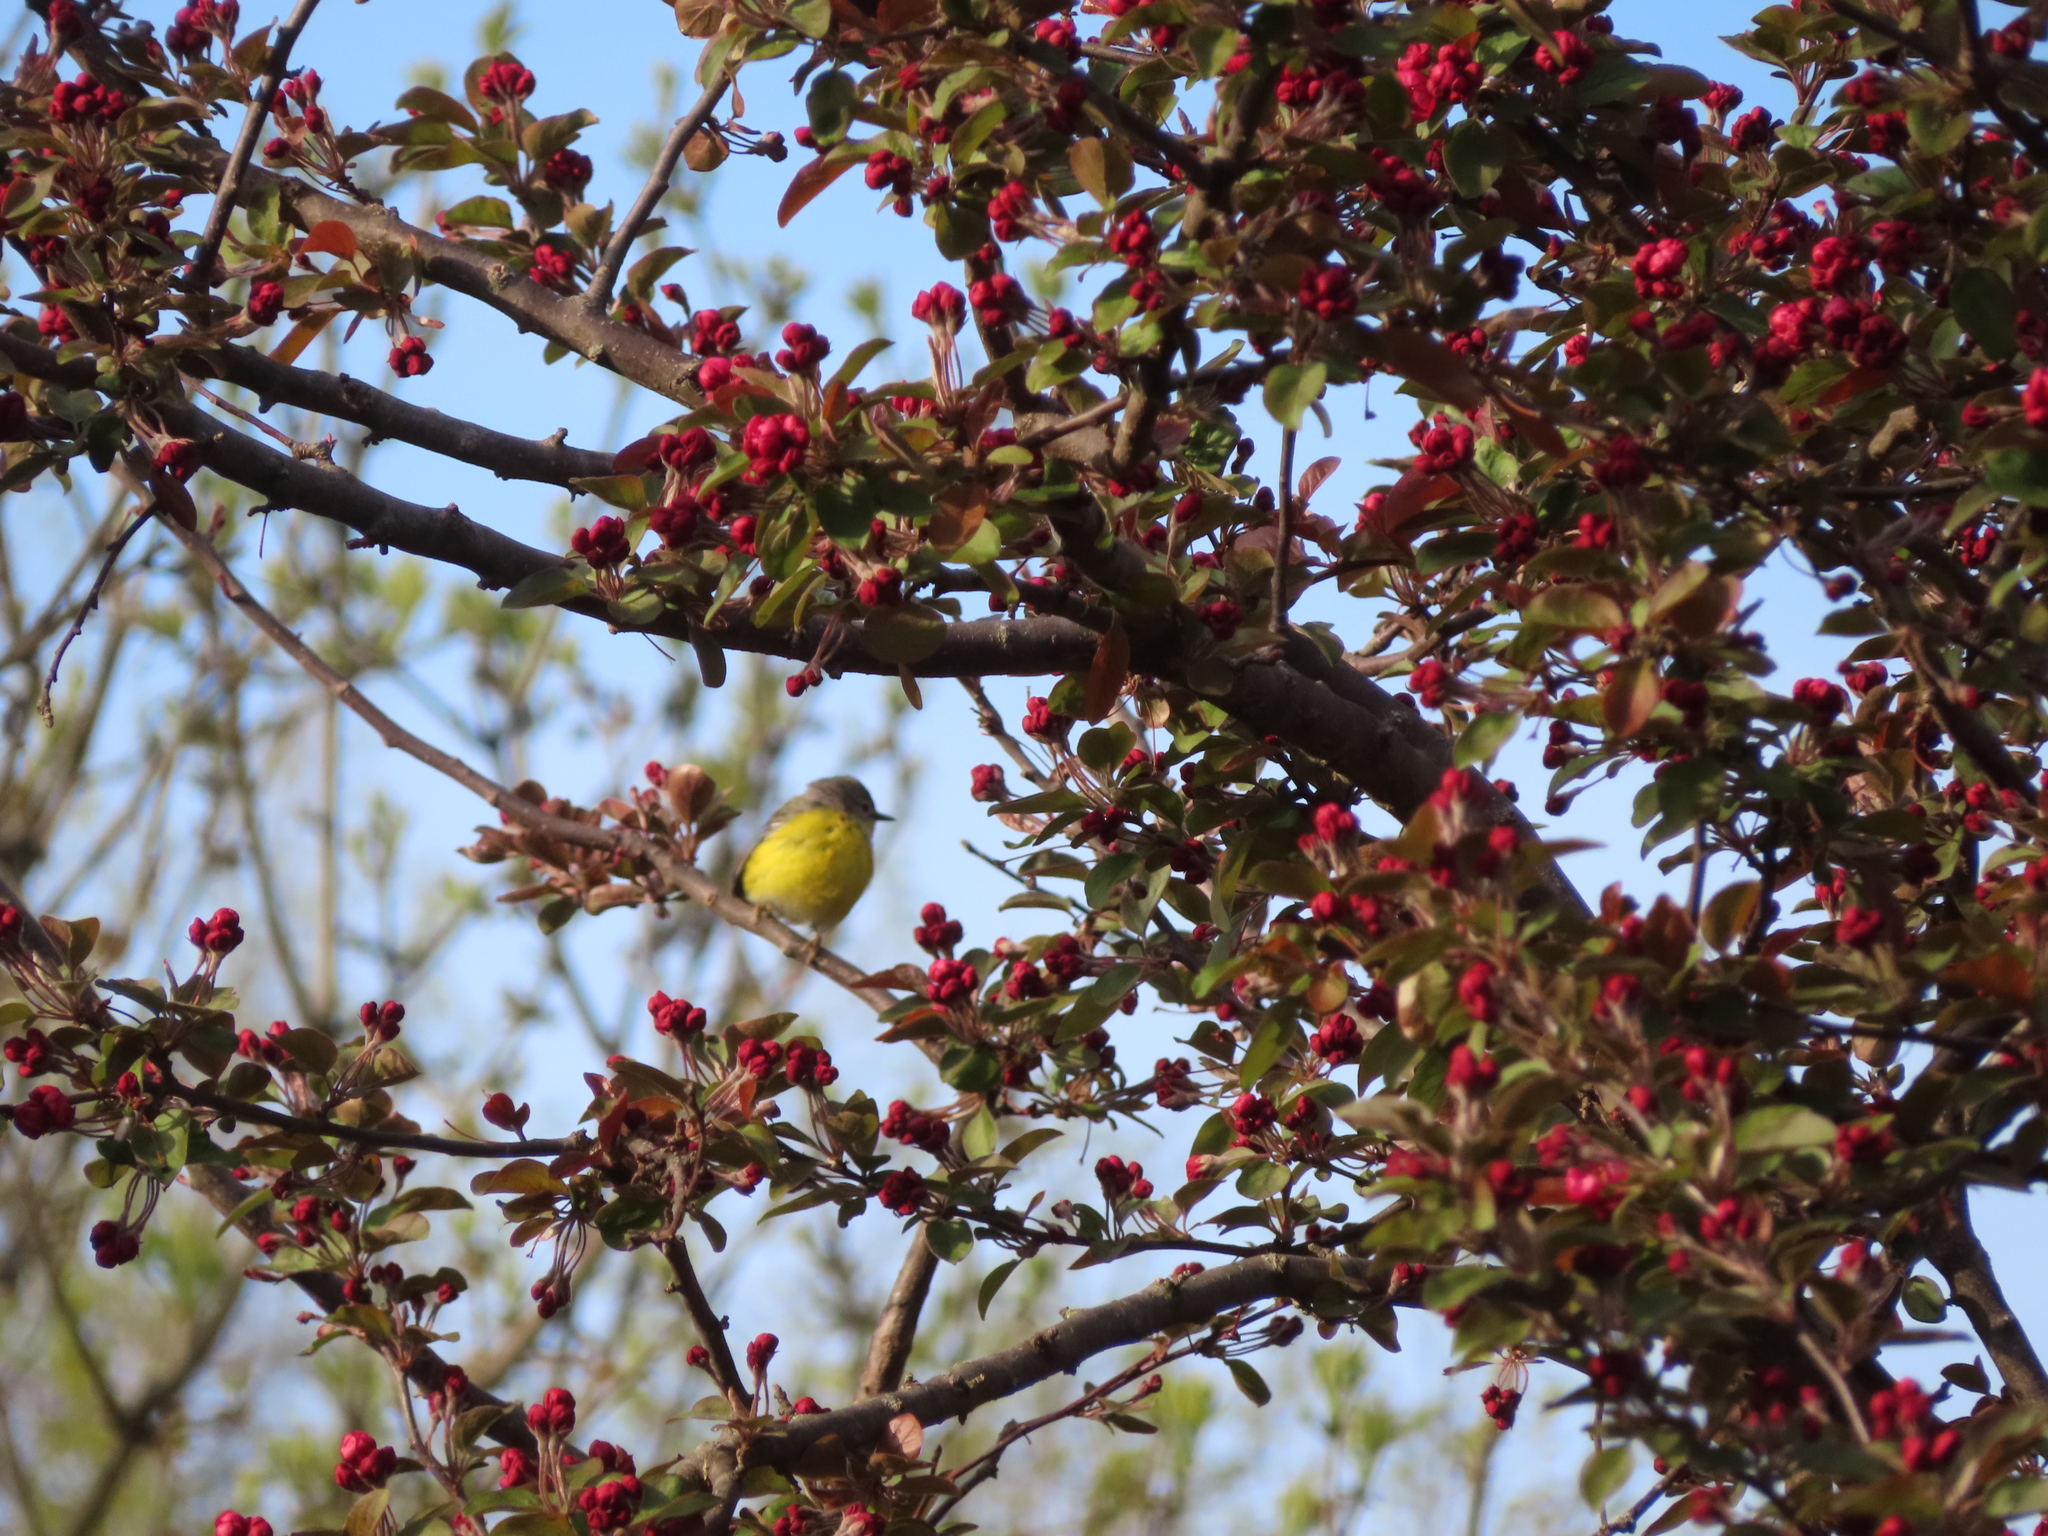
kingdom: Animalia
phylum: Chordata
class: Aves
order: Passeriformes
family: Parulidae
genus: Leiothlypis
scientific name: Leiothlypis ruficapilla
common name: Nashville warbler
